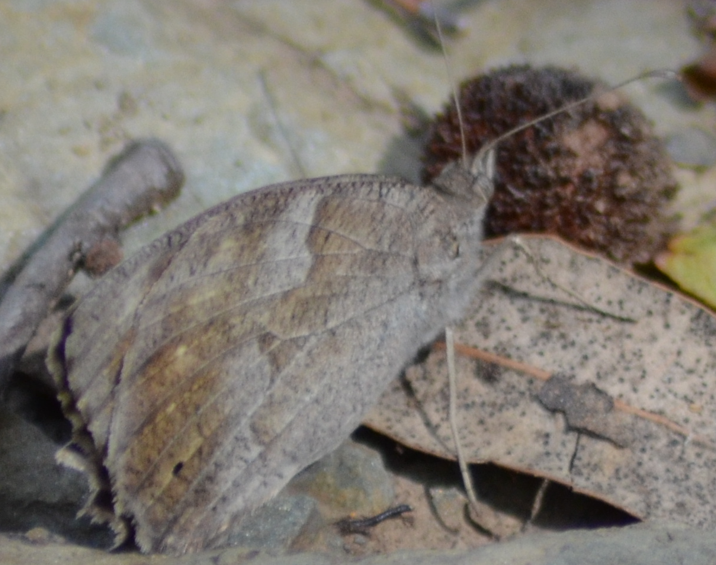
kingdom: Animalia
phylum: Arthropoda
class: Insecta
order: Lepidoptera
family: Nymphalidae
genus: Hipparchia
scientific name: Hipparchia statilinus
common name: Tree grayling
